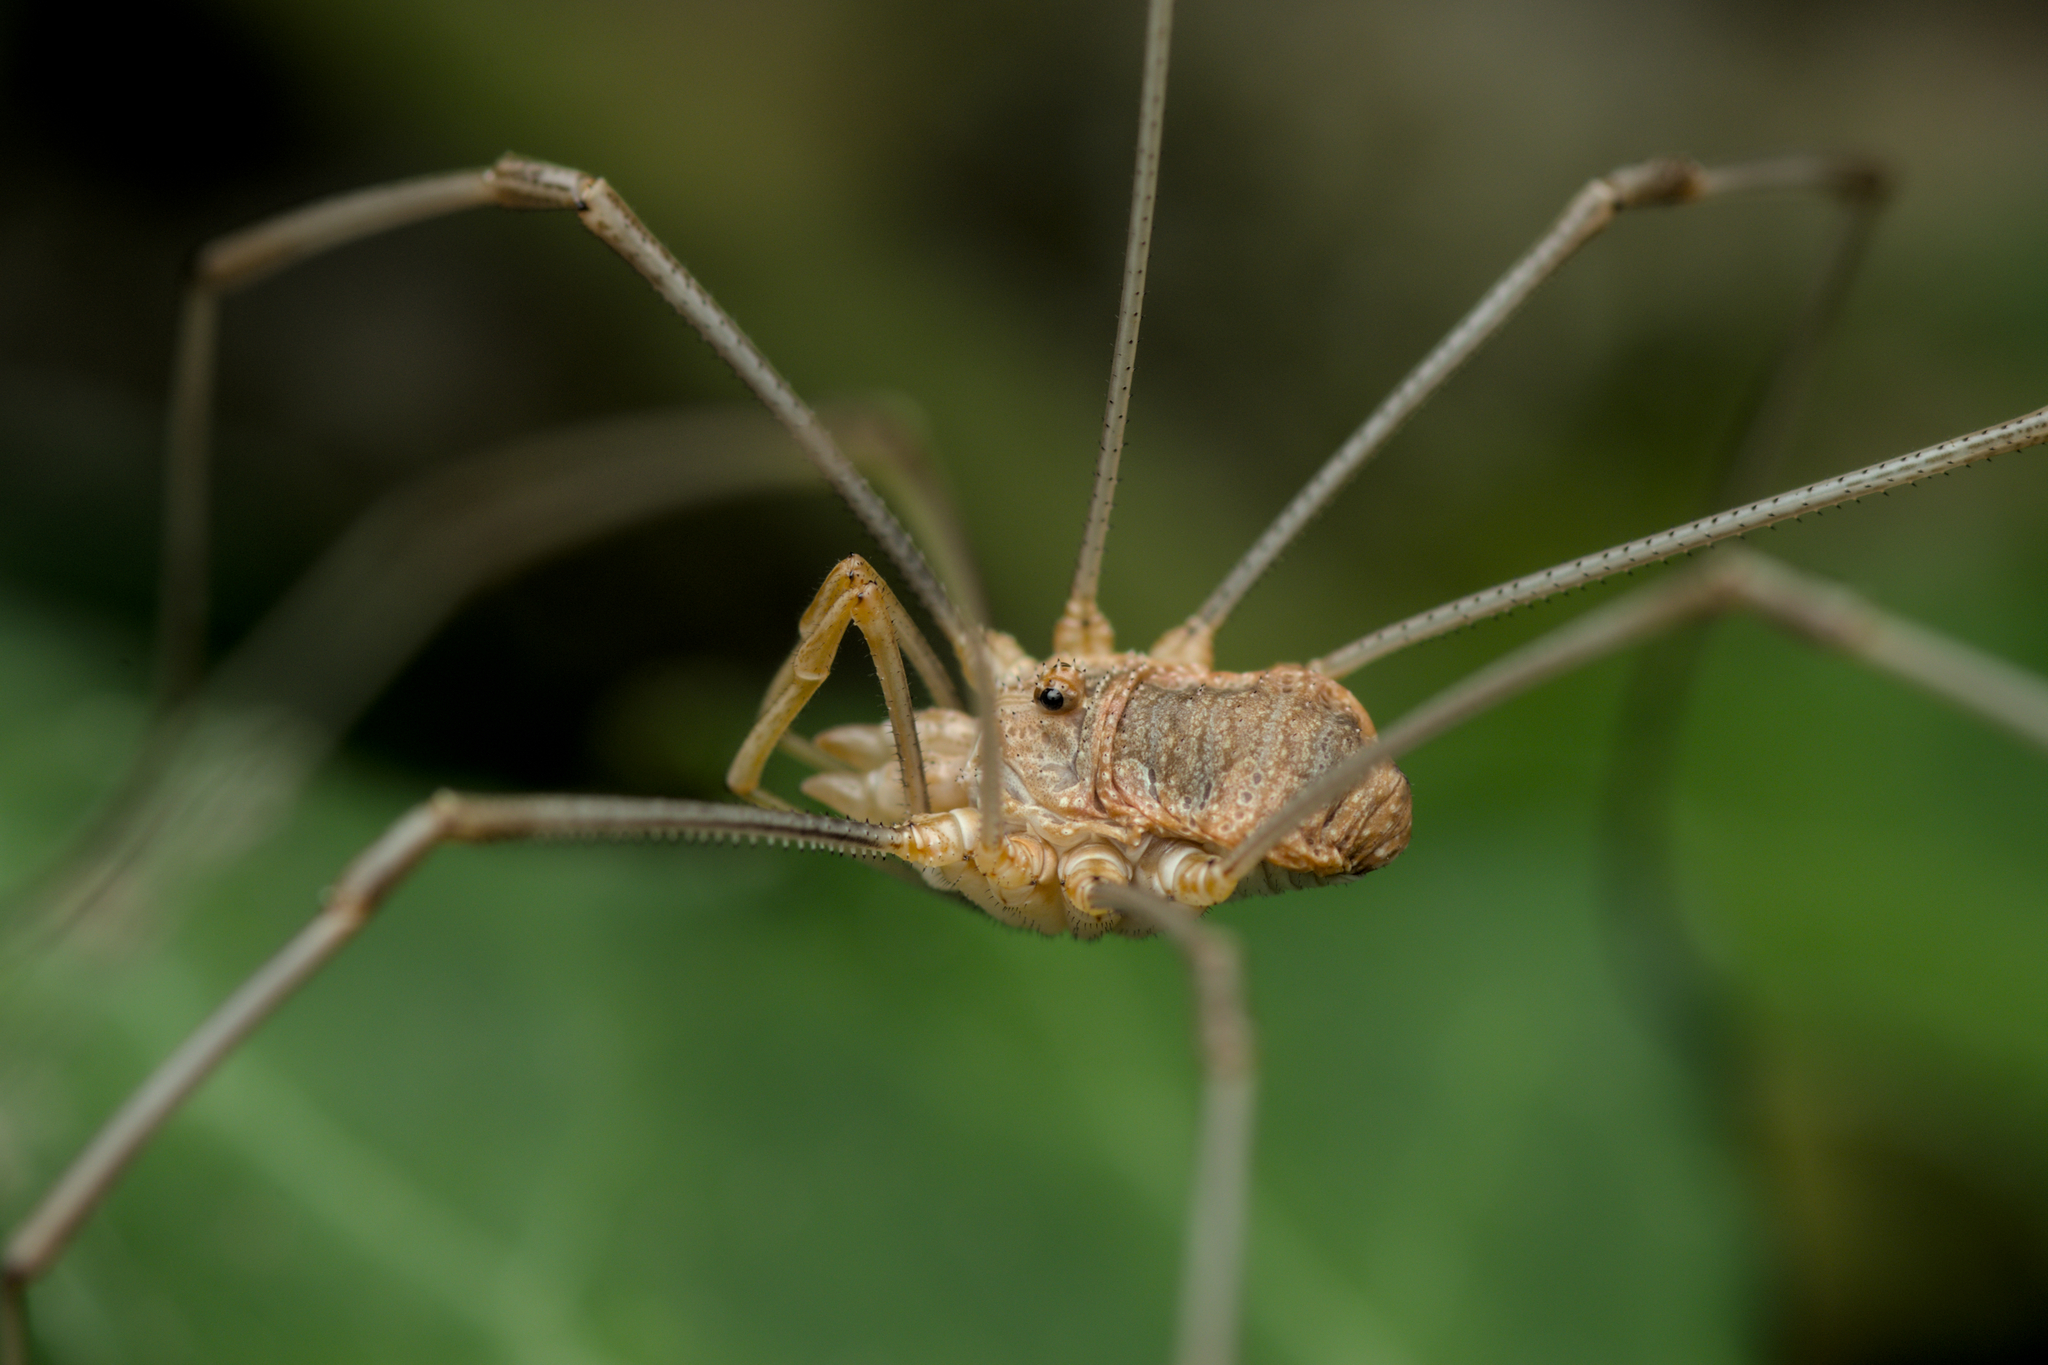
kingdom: Animalia
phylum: Arthropoda
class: Arachnida
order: Opiliones
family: Phalangiidae
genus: Phalangium
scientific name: Phalangium opilio
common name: Daddy longleg
